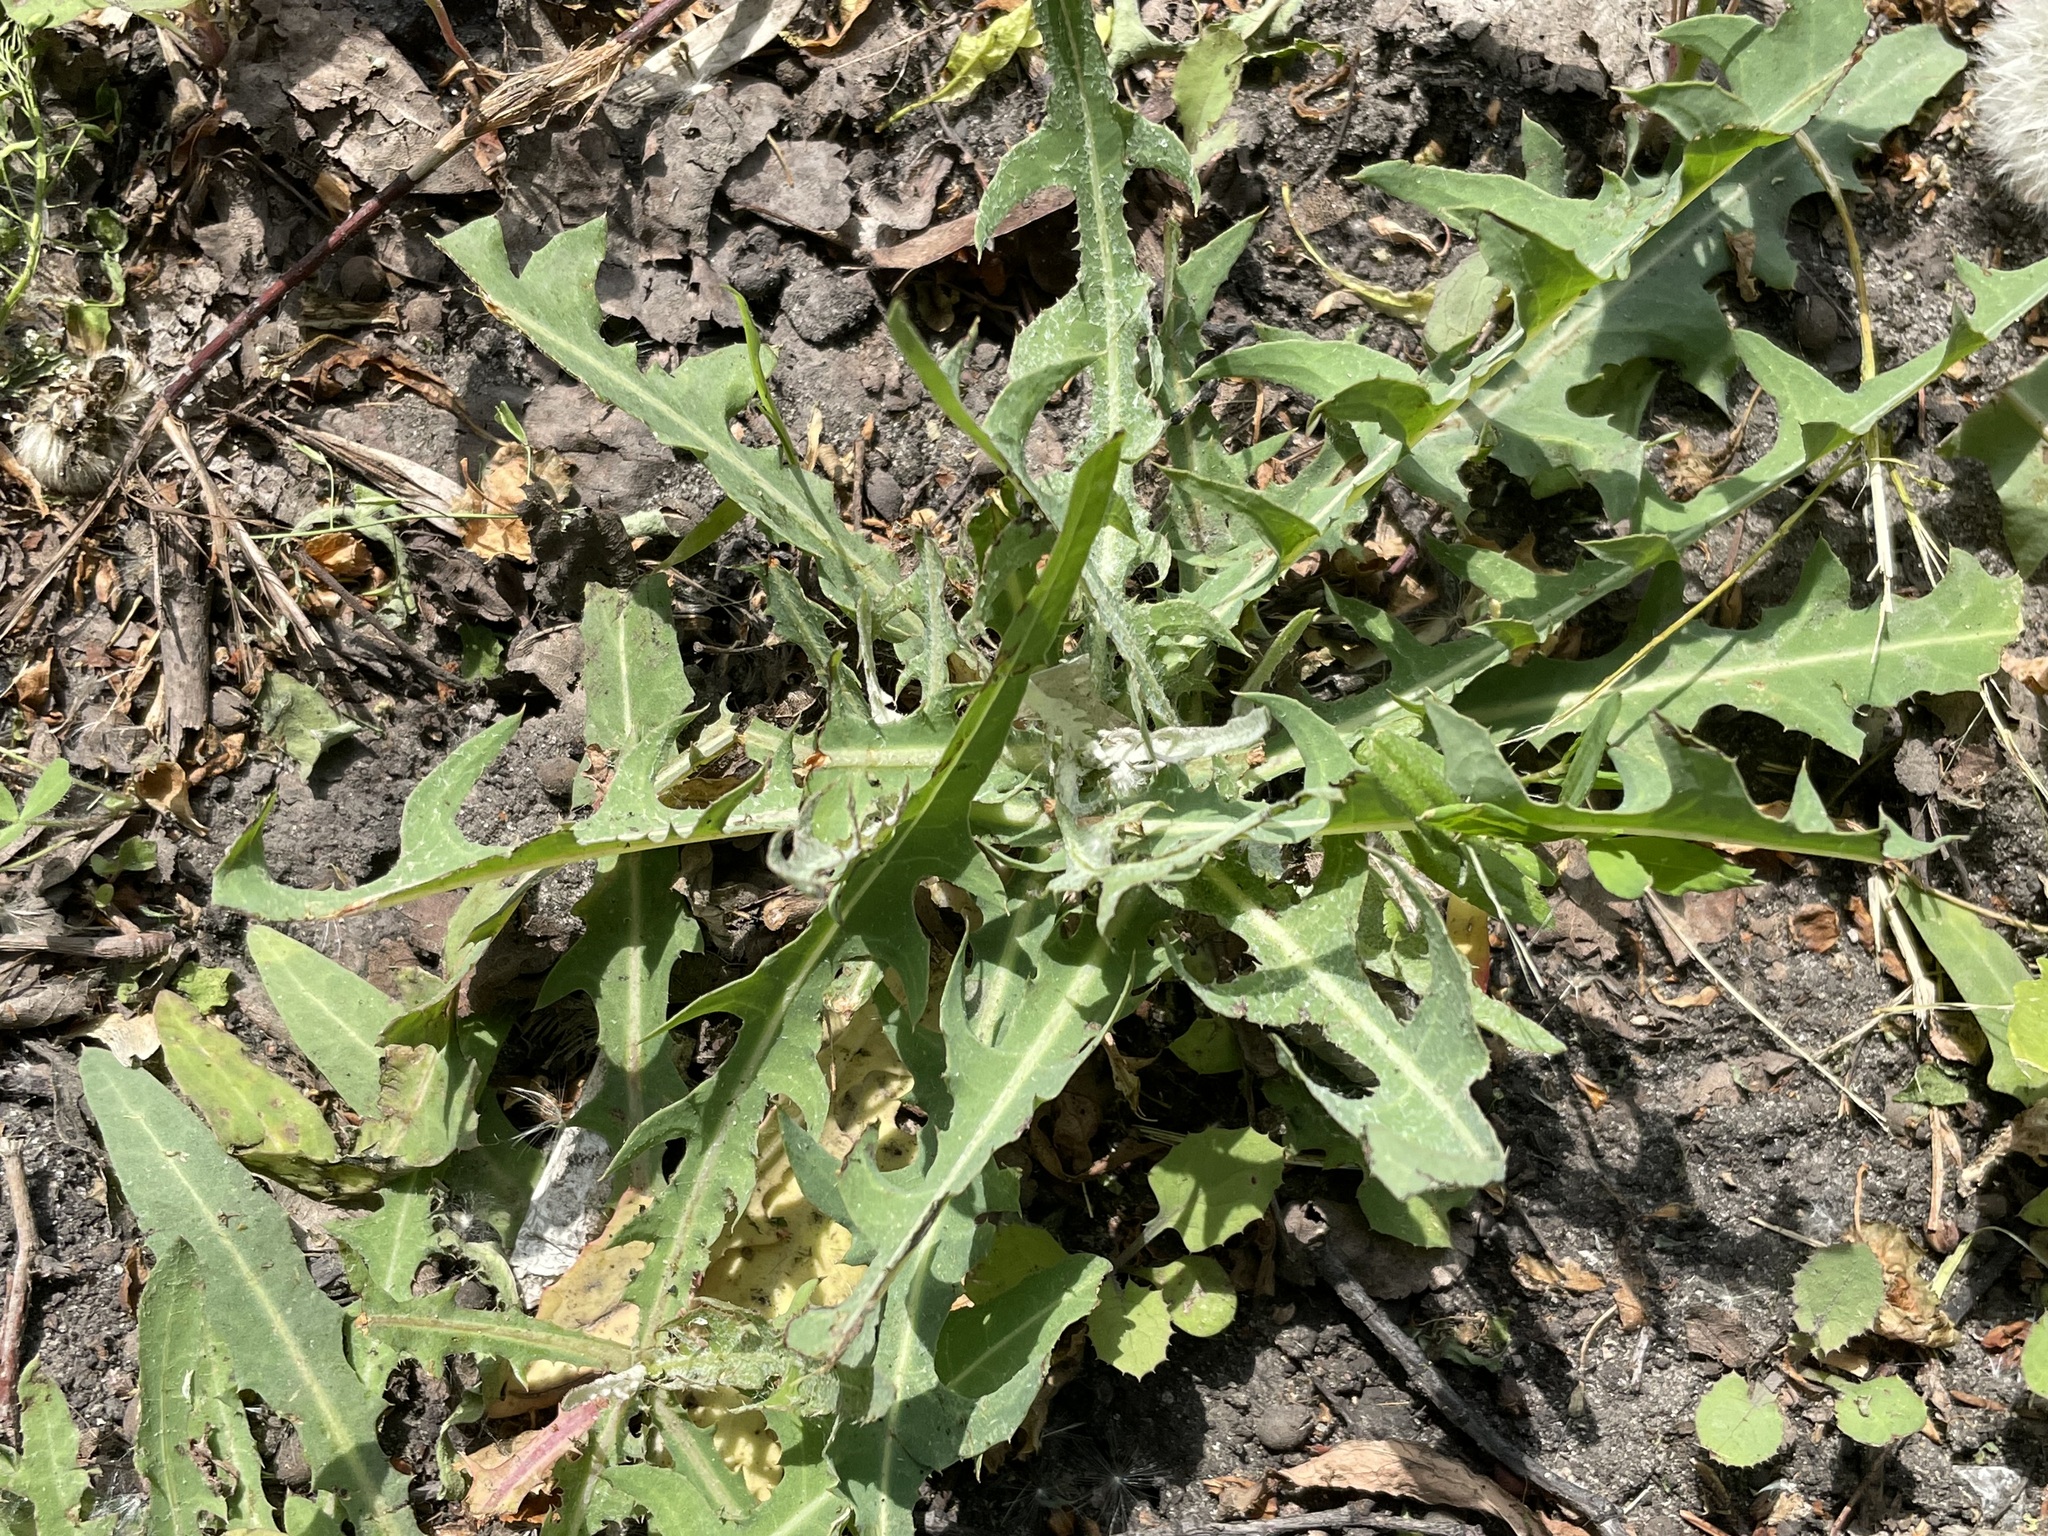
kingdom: Plantae
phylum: Tracheophyta
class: Magnoliopsida
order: Asterales
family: Asteraceae
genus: Lactuca
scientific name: Lactuca tatarica
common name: Blue lettuce
